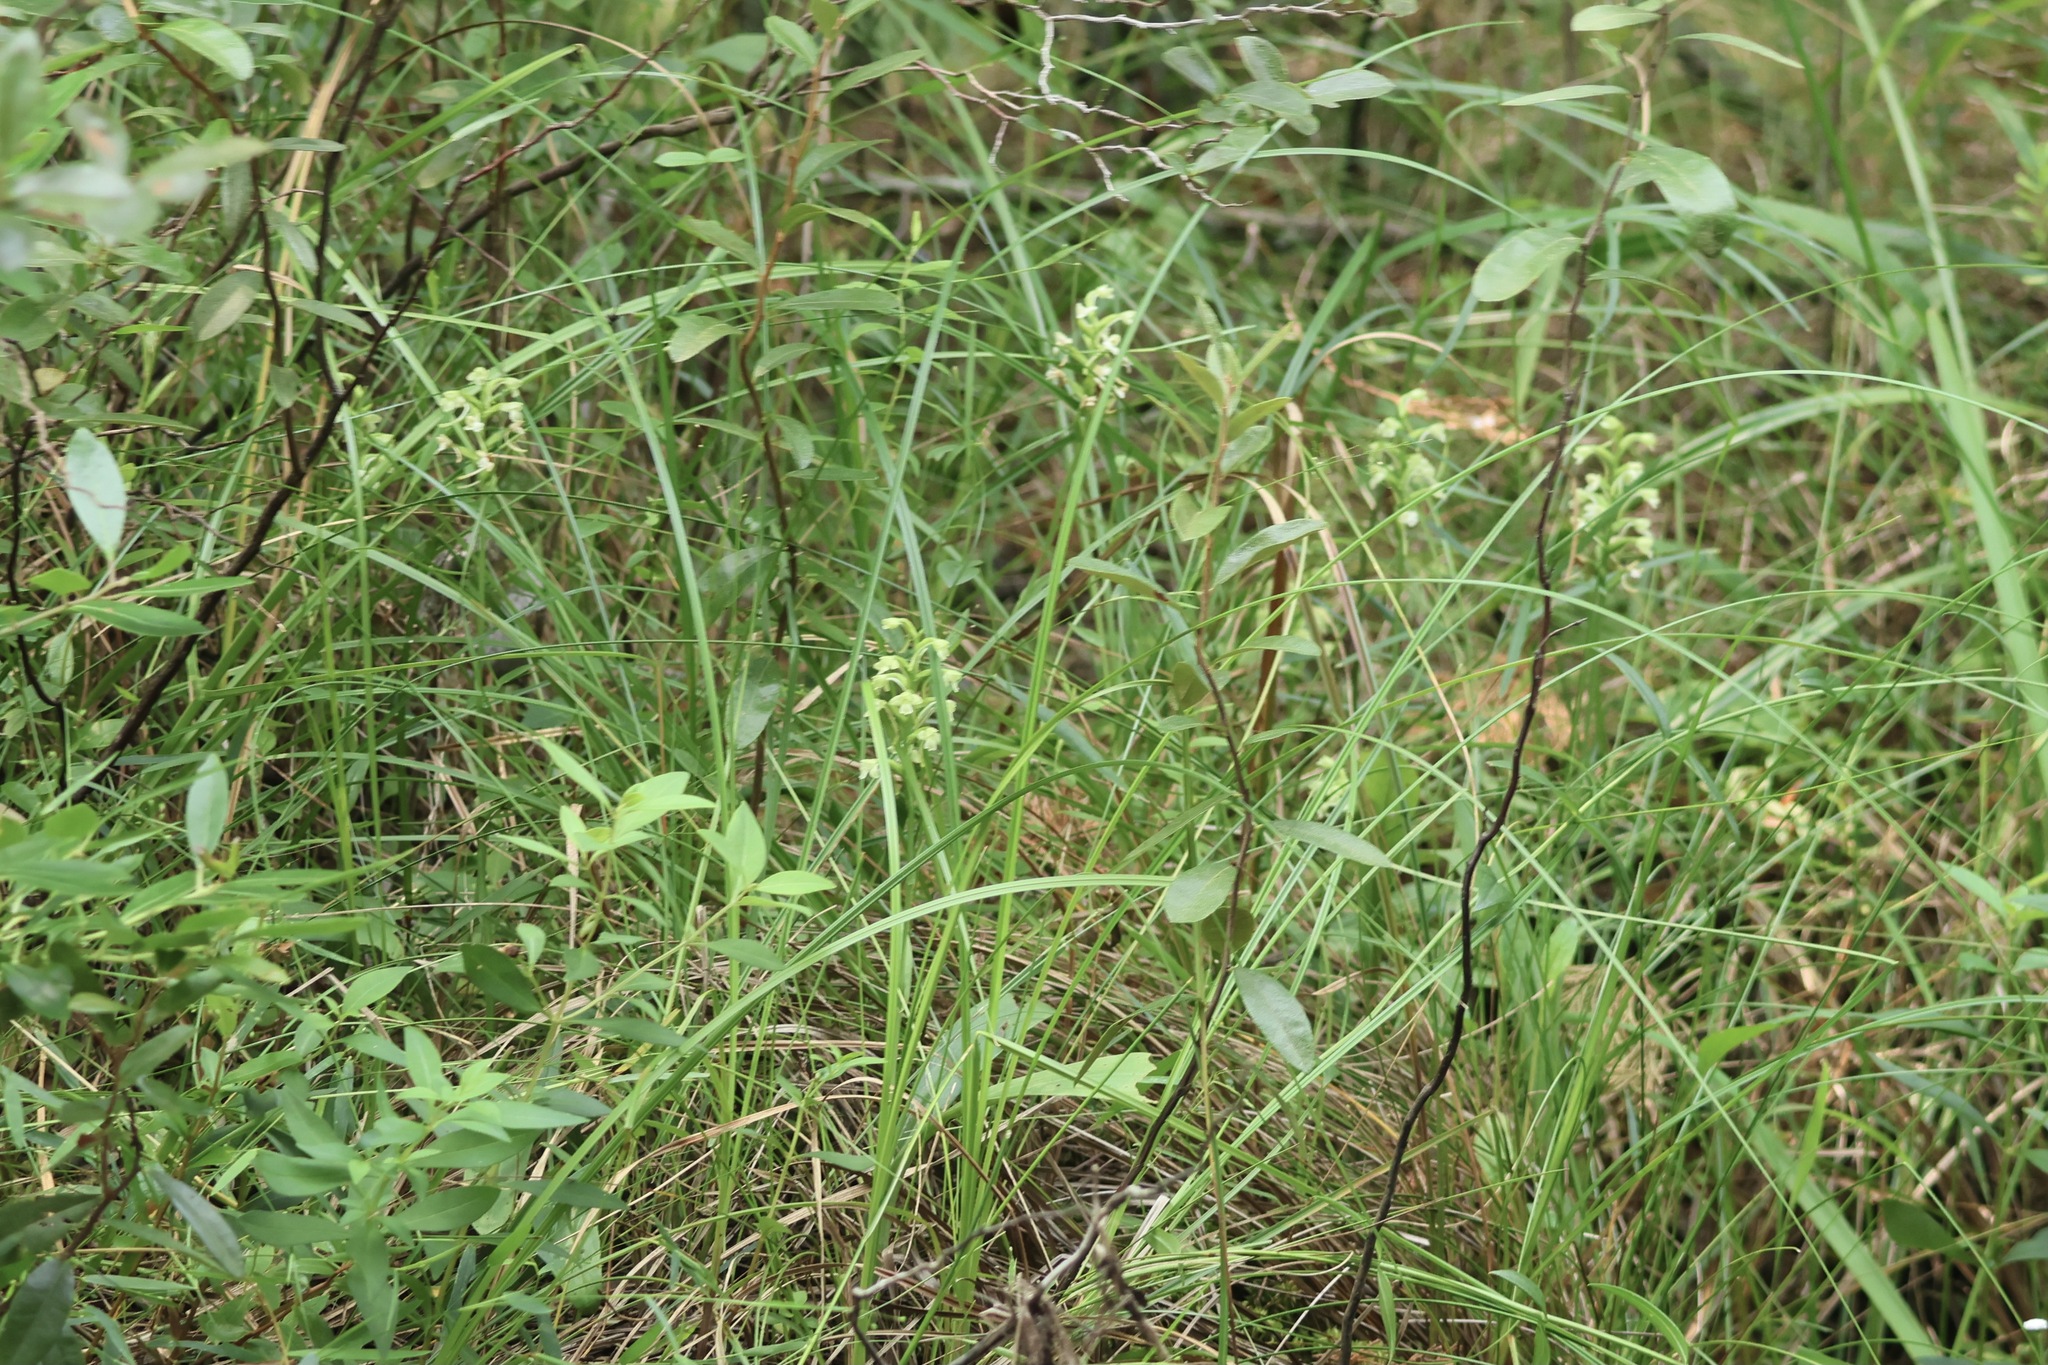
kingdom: Plantae
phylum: Tracheophyta
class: Liliopsida
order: Asparagales
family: Orchidaceae
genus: Platanthera
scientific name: Platanthera clavellata
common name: Club-spur orchid
